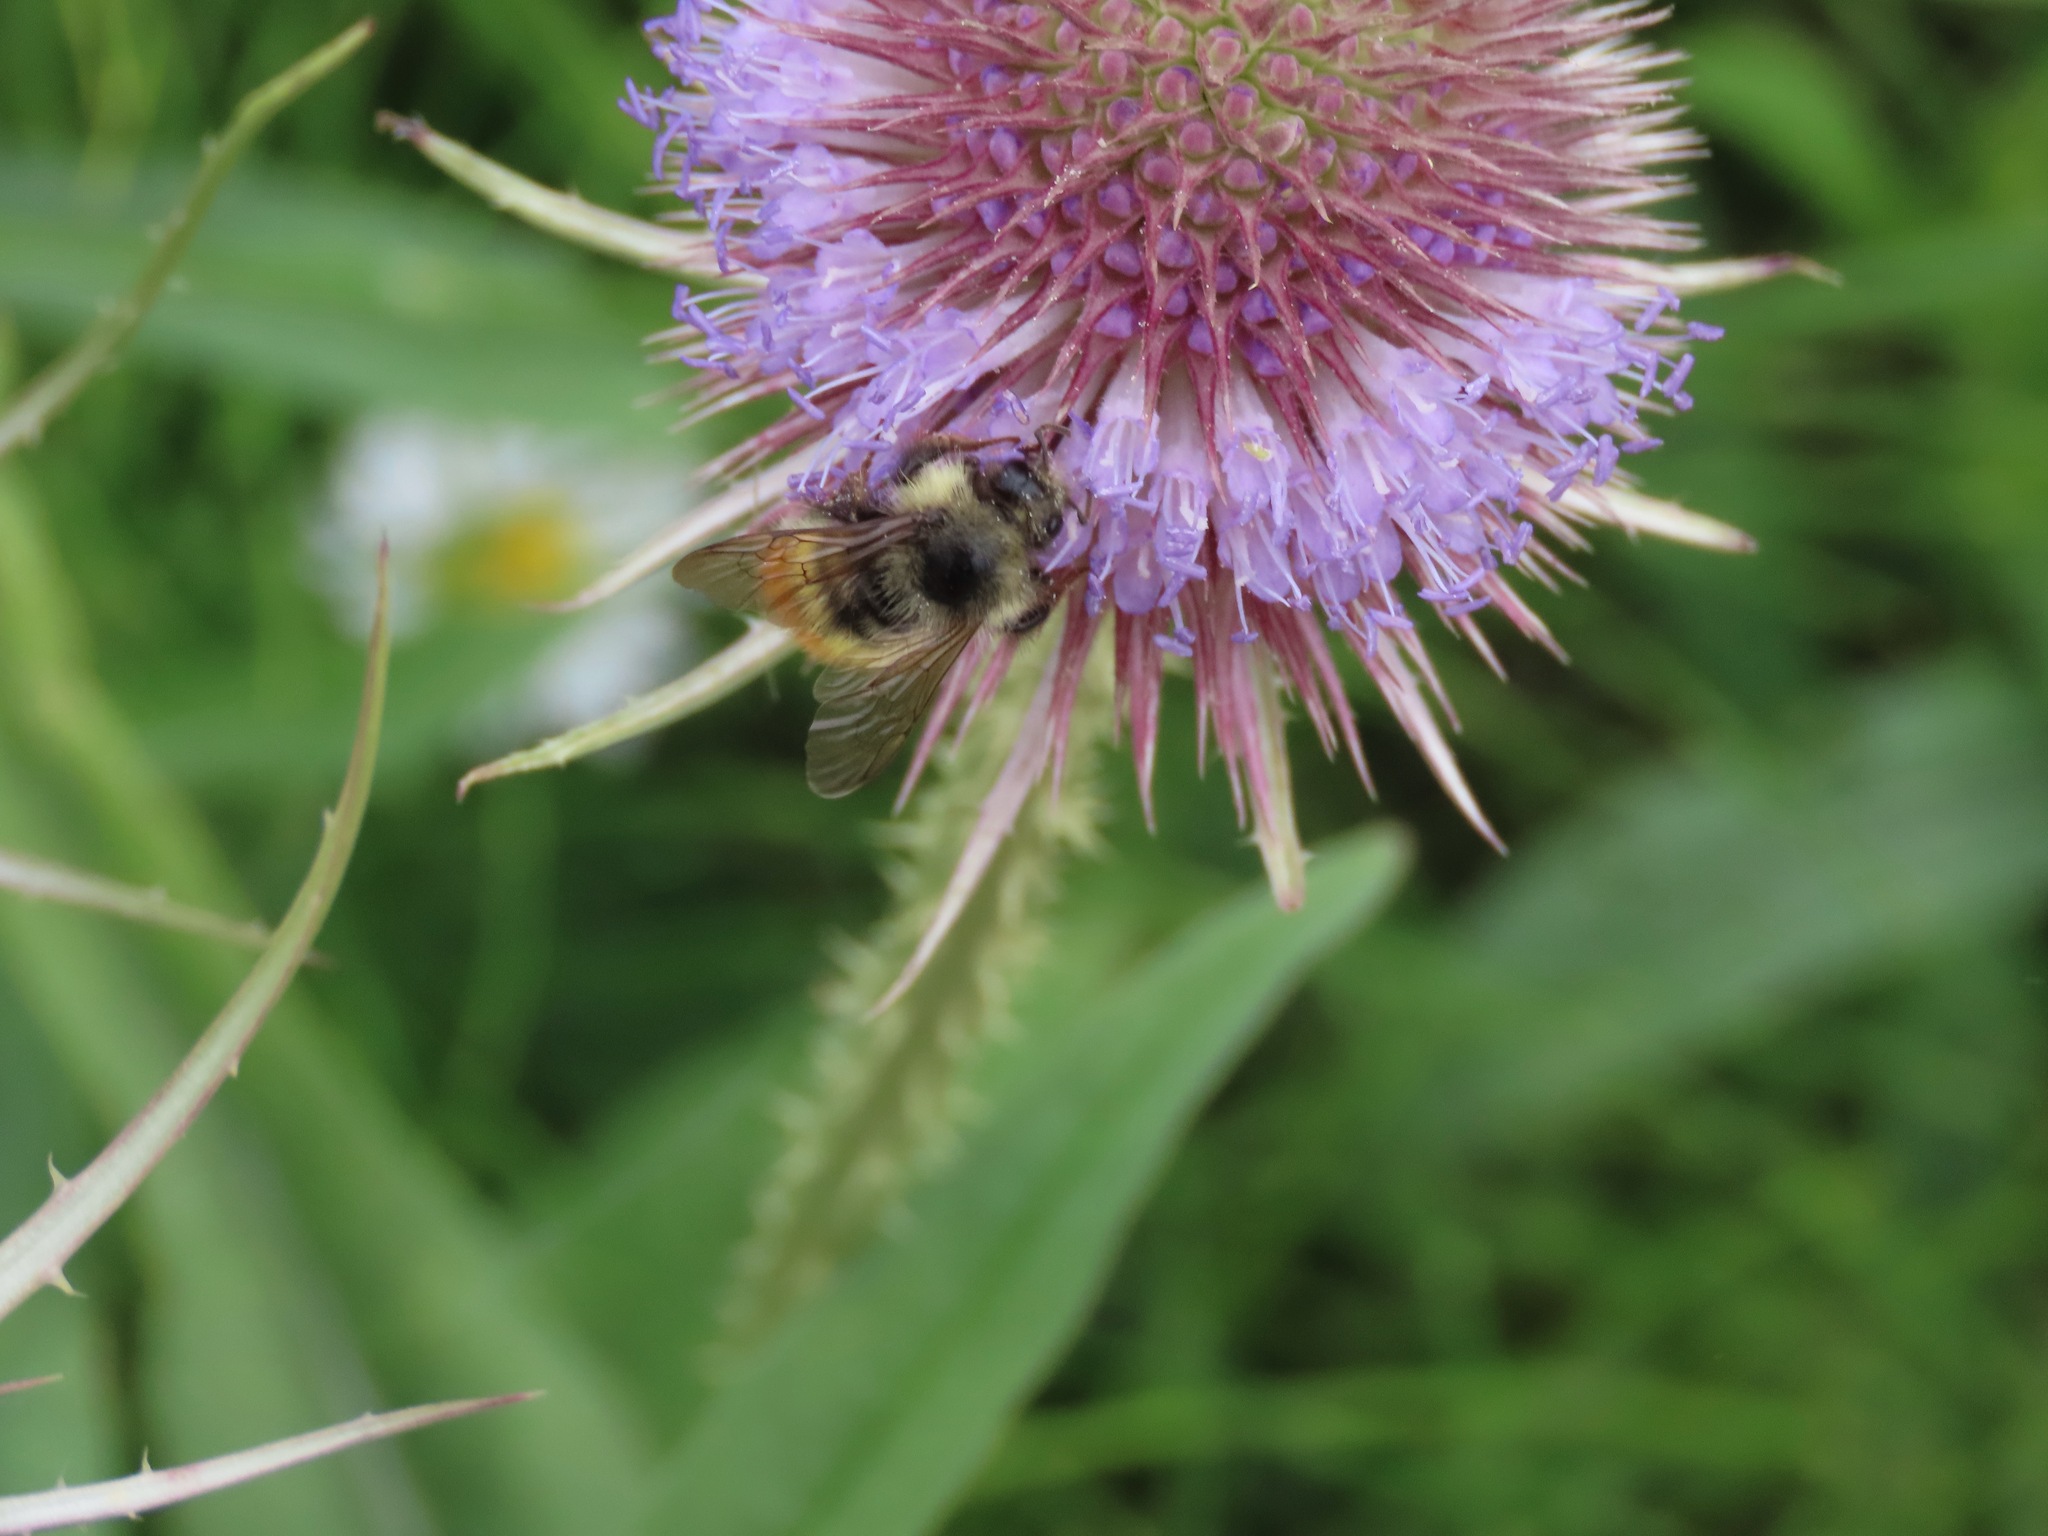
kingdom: Animalia
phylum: Arthropoda
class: Insecta
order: Hymenoptera
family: Apidae
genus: Bombus
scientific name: Bombus flavifrons
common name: Yellow head bumble bee
